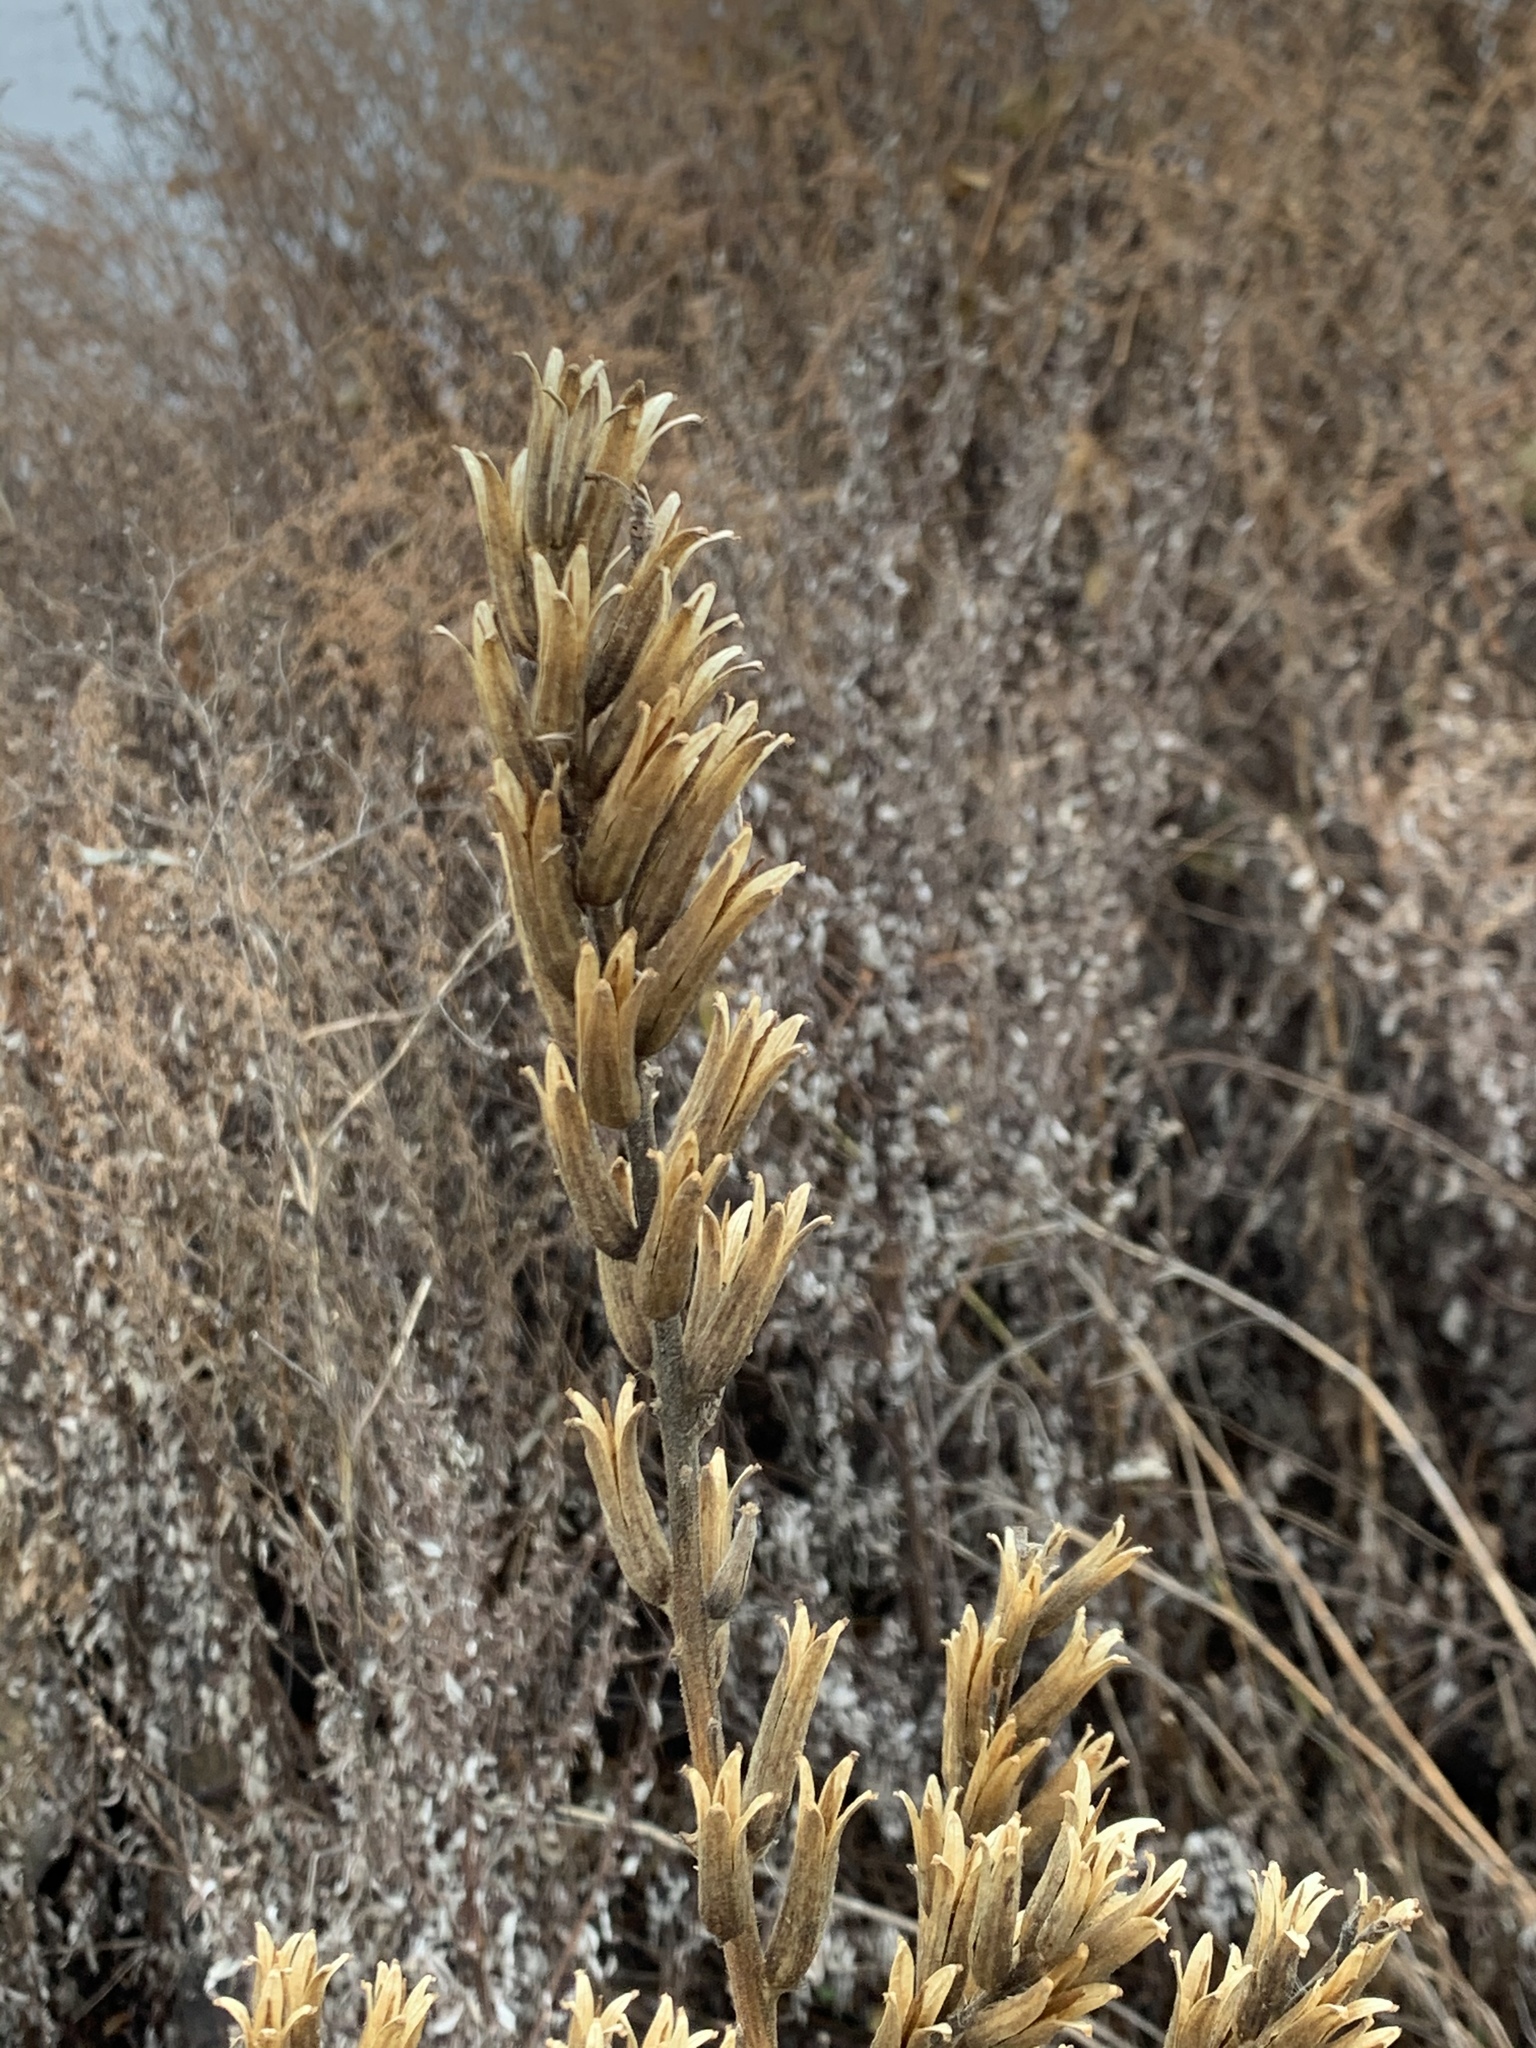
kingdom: Plantae
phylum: Tracheophyta
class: Magnoliopsida
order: Myrtales
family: Onagraceae
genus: Oenothera
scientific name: Oenothera biennis
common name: Common evening-primrose
